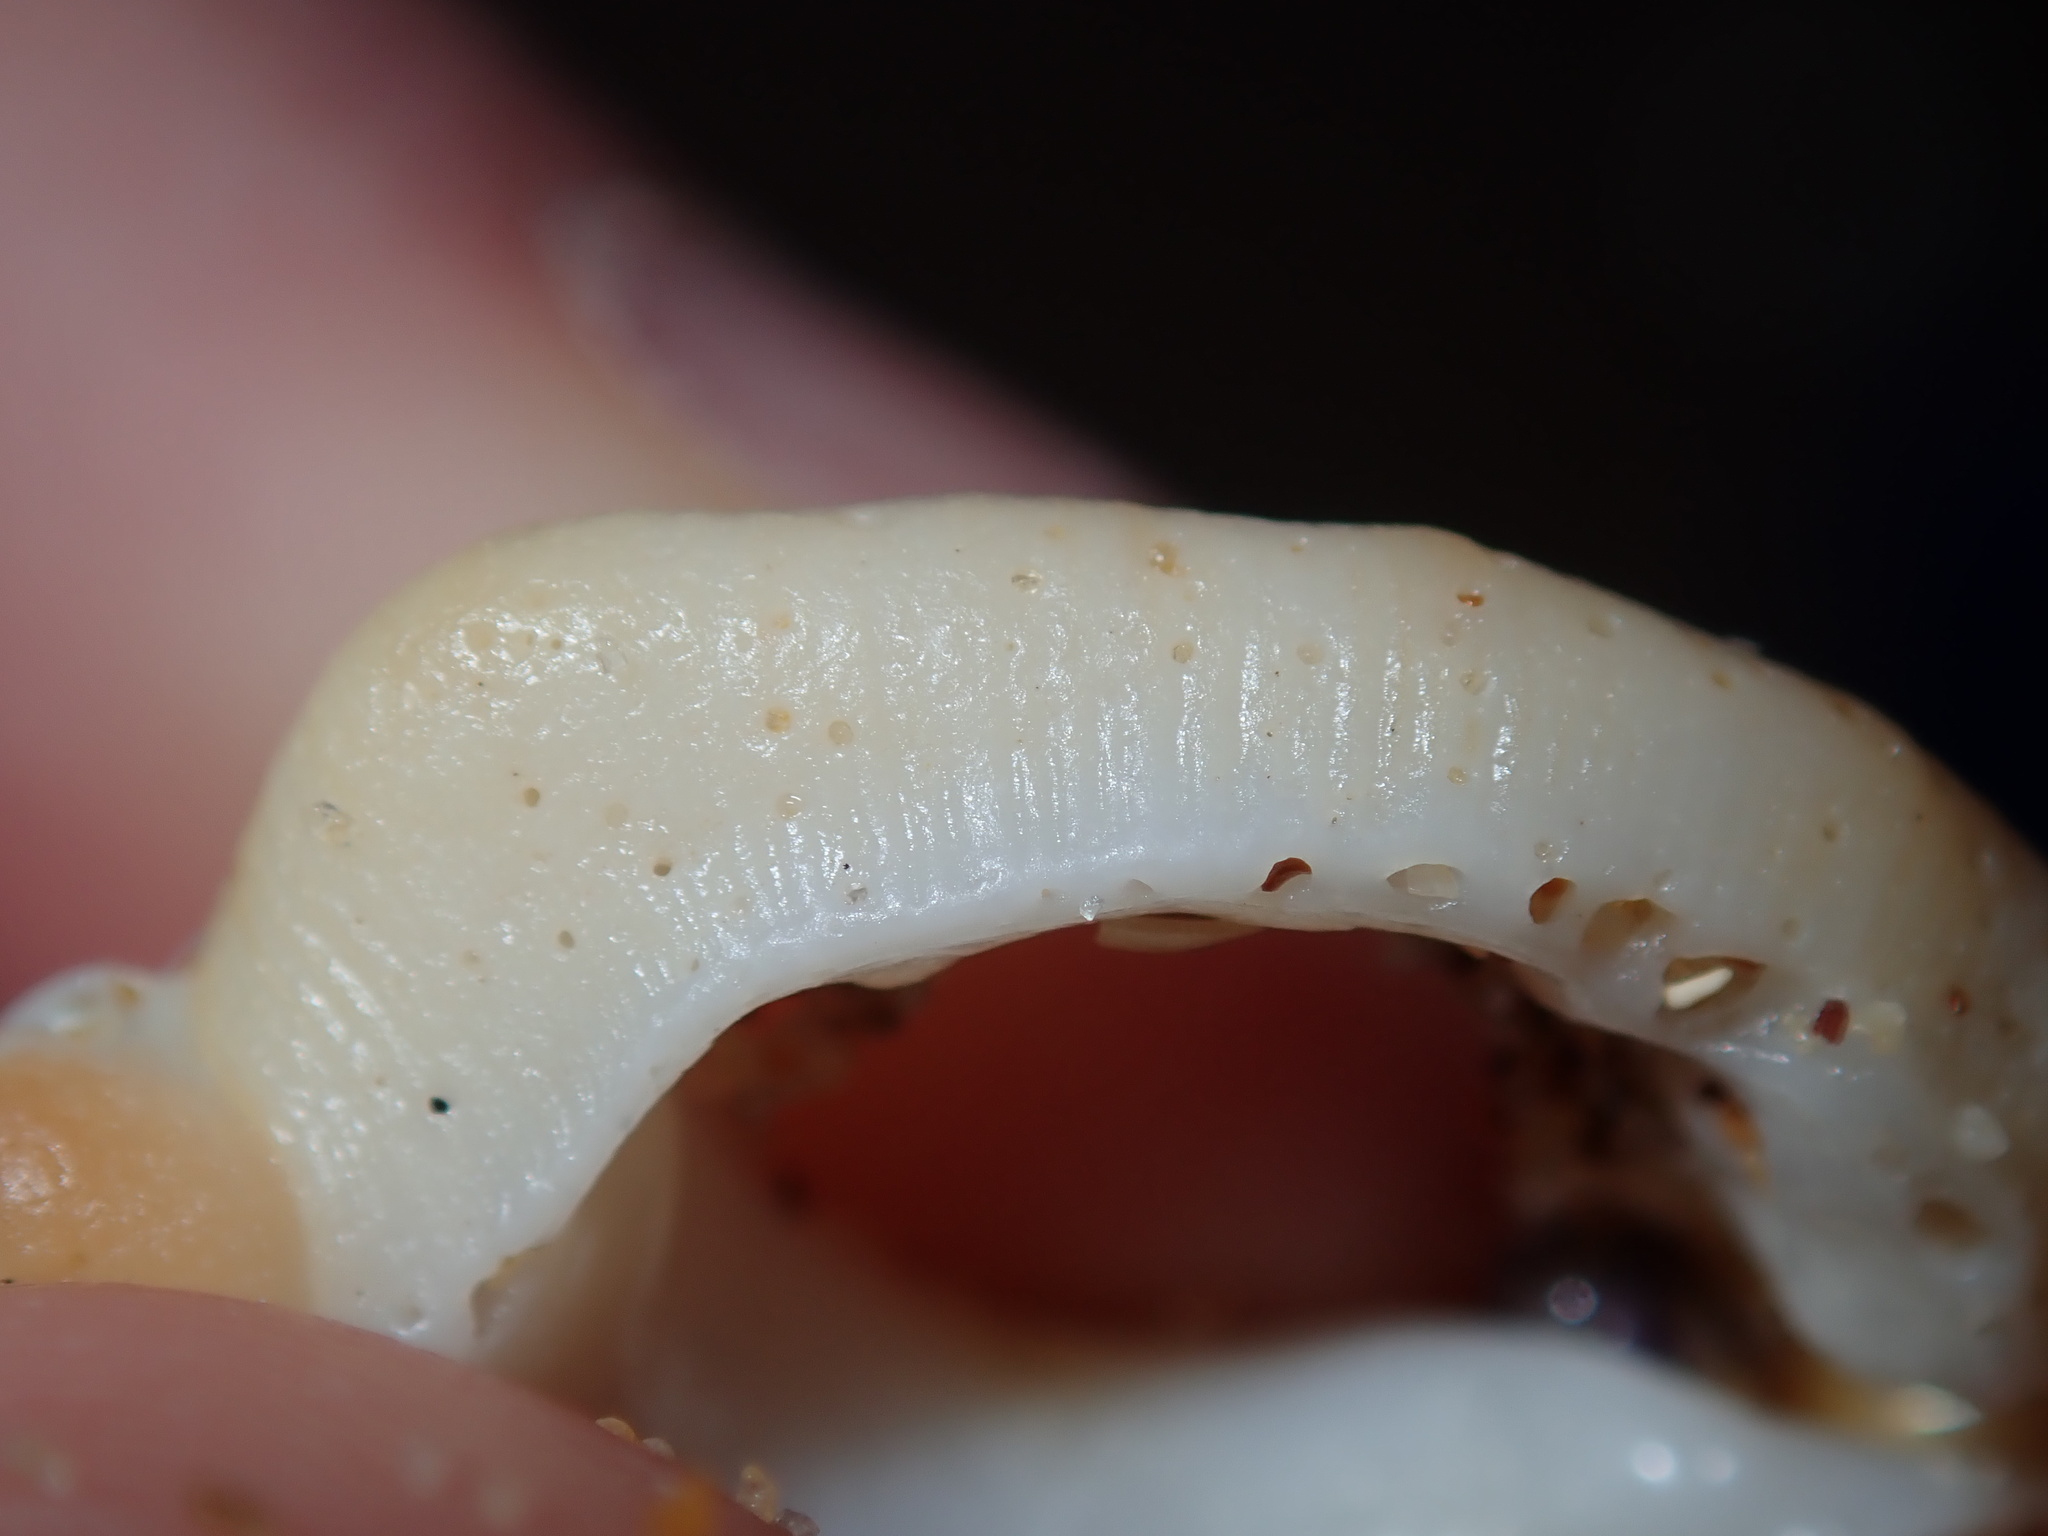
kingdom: Animalia
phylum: Mollusca
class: Gastropoda
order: Littorinimorpha
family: Cymatiidae
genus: Austrosassia
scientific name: Austrosassia parkinsonia
